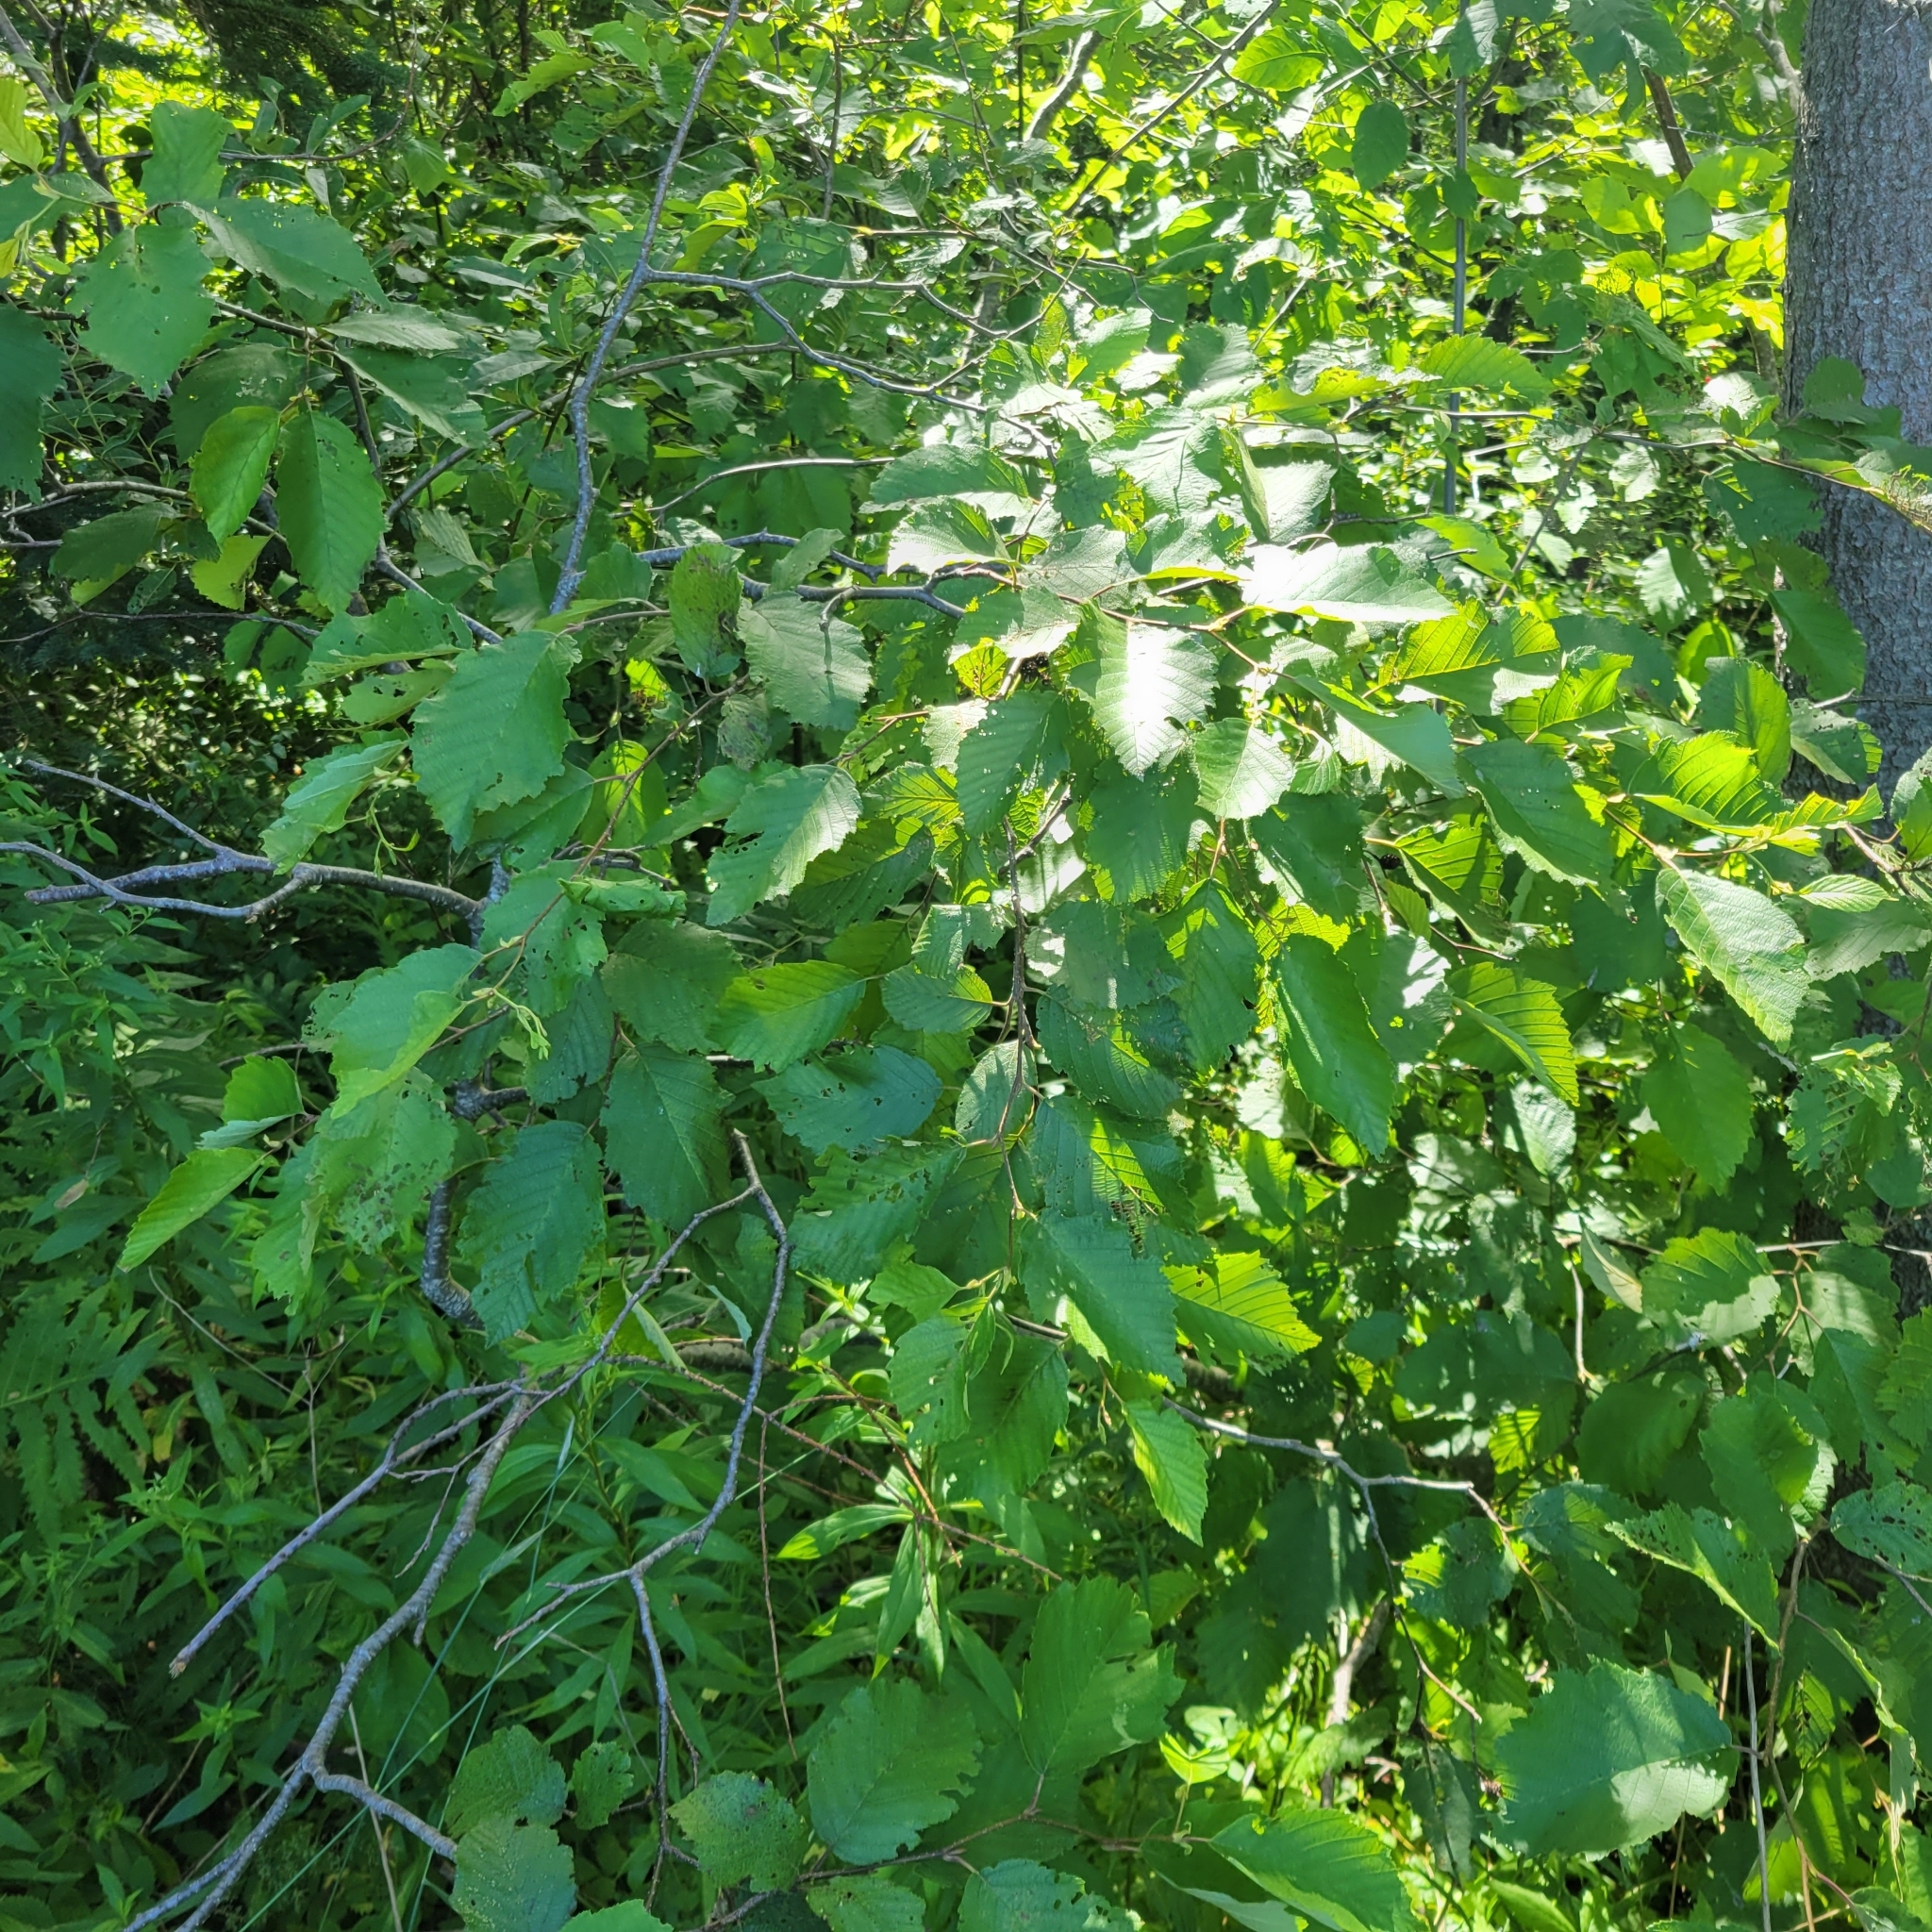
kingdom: Plantae
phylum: Tracheophyta
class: Magnoliopsida
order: Fagales
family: Betulaceae
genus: Corylus
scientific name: Corylus cornuta
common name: Beaked hazel
